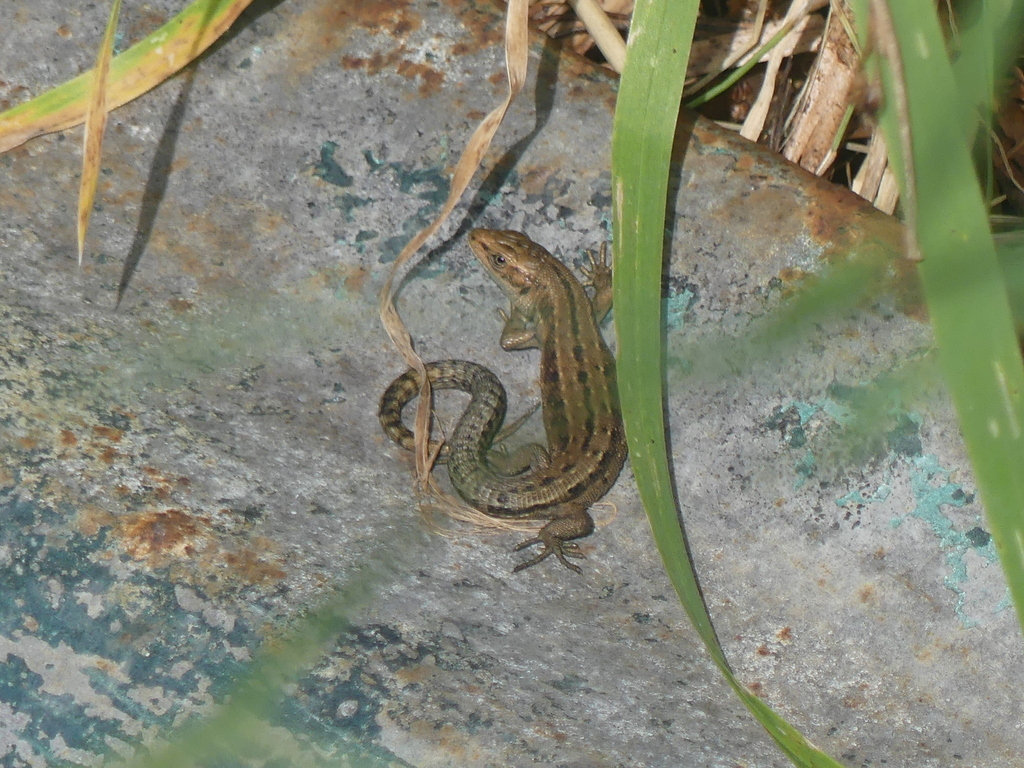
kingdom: Animalia
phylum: Chordata
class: Squamata
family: Lacertidae
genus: Zootoca
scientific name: Zootoca vivipara
